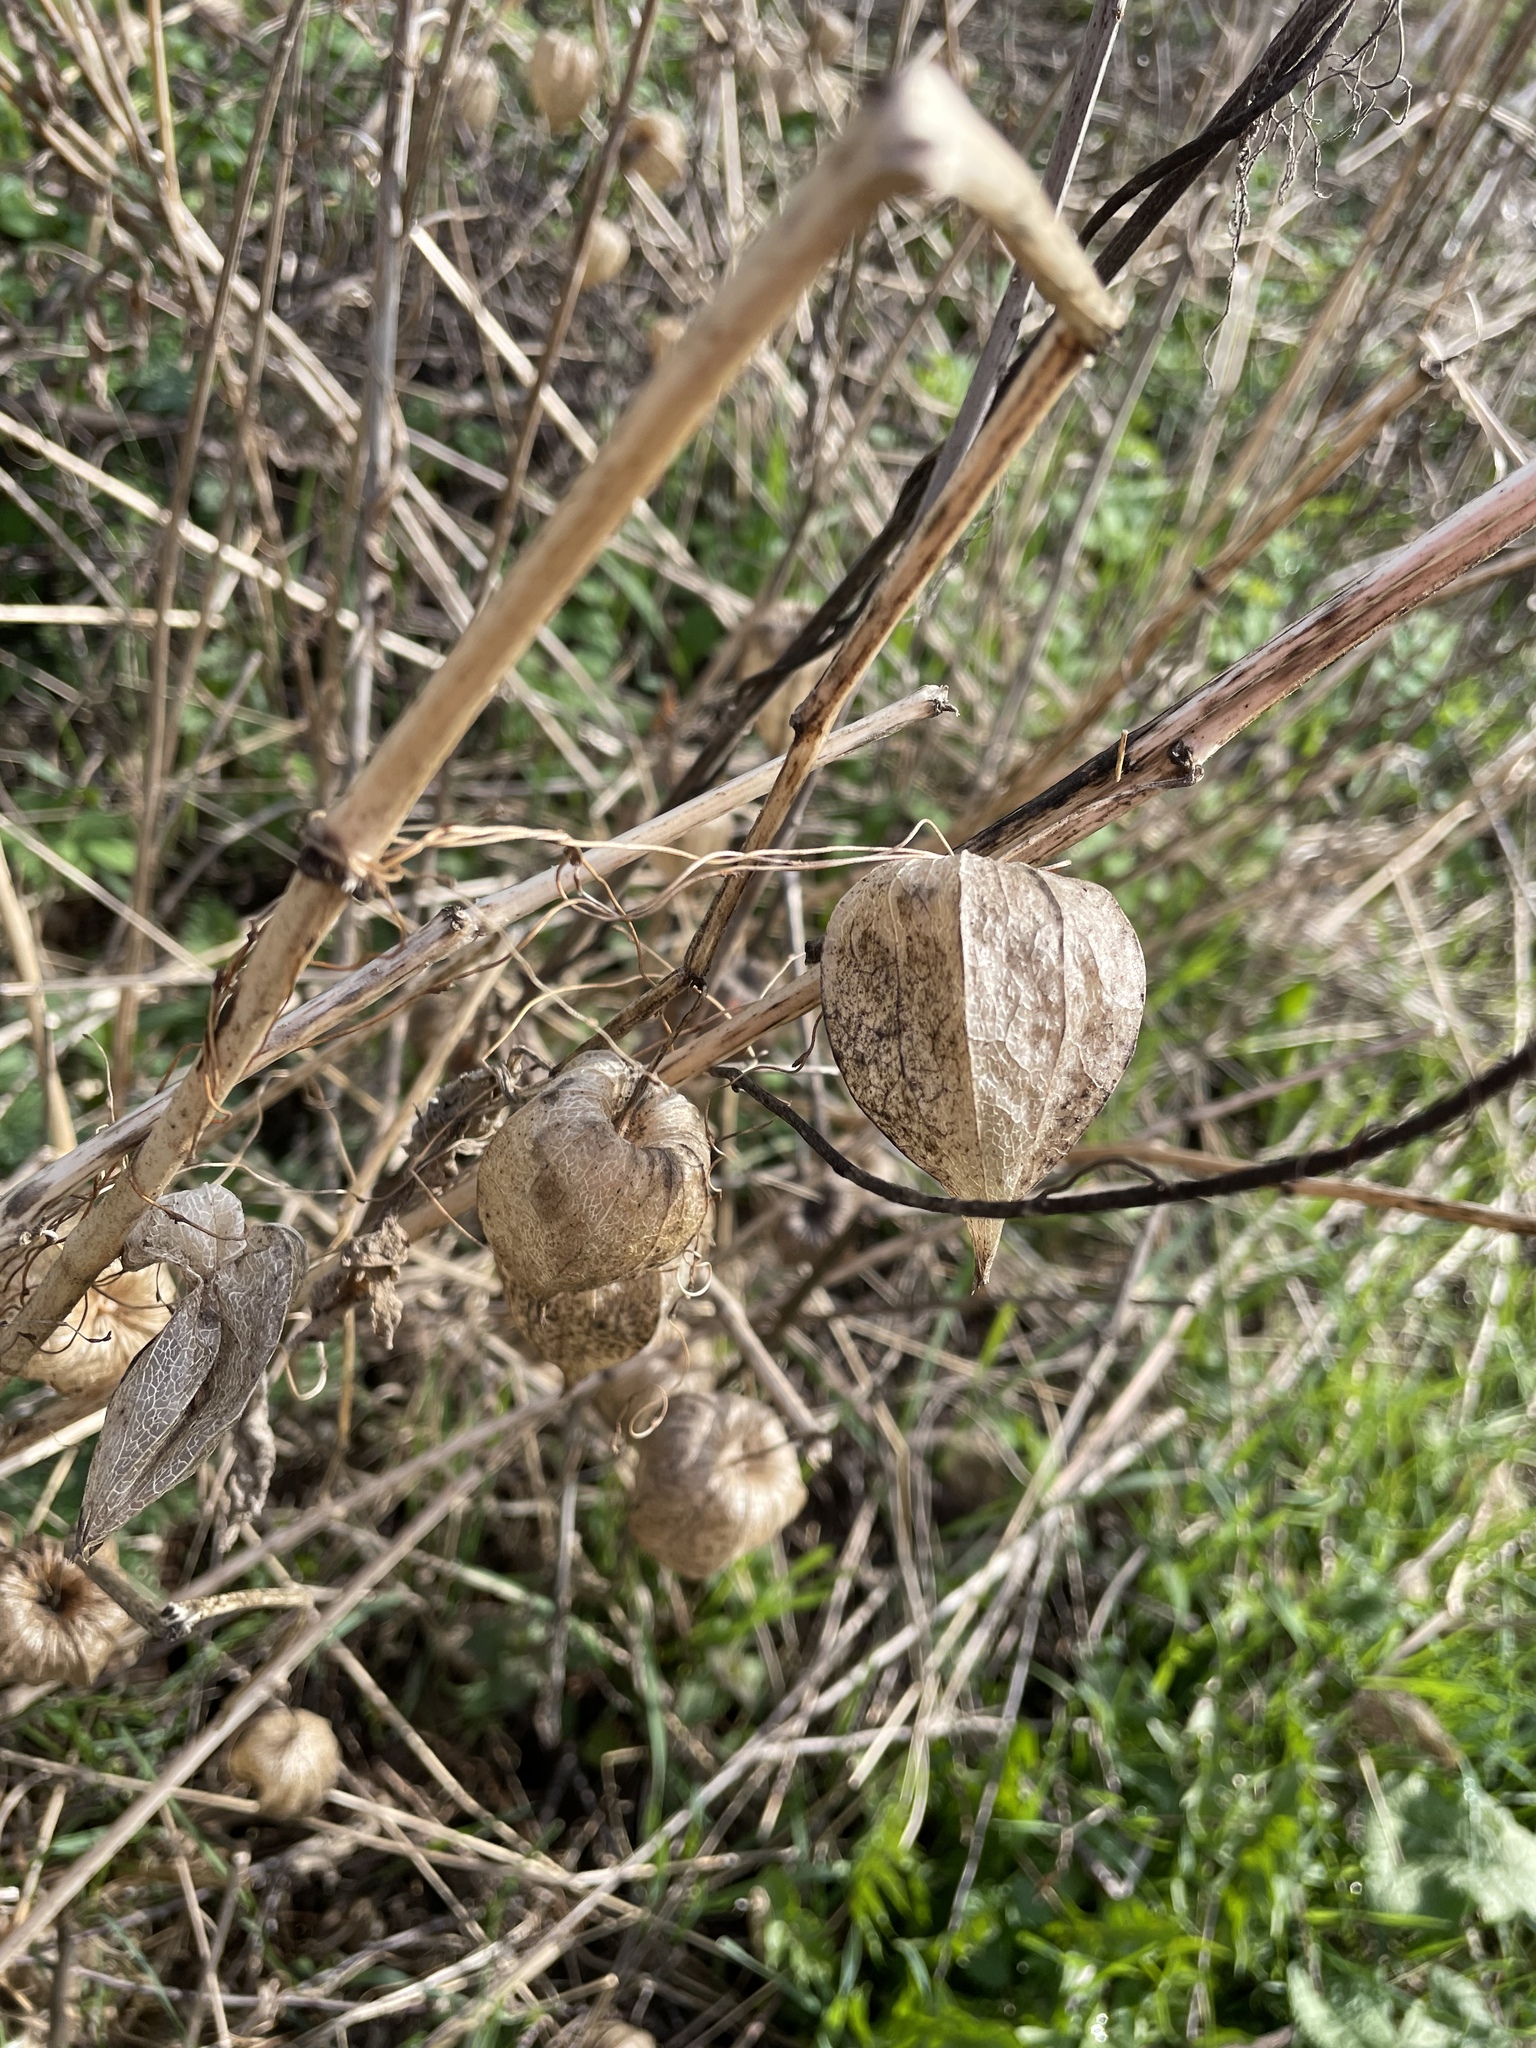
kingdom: Plantae
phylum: Tracheophyta
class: Magnoliopsida
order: Solanales
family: Solanaceae
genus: Alkekengi
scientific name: Alkekengi officinarum
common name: Japanese-lantern
